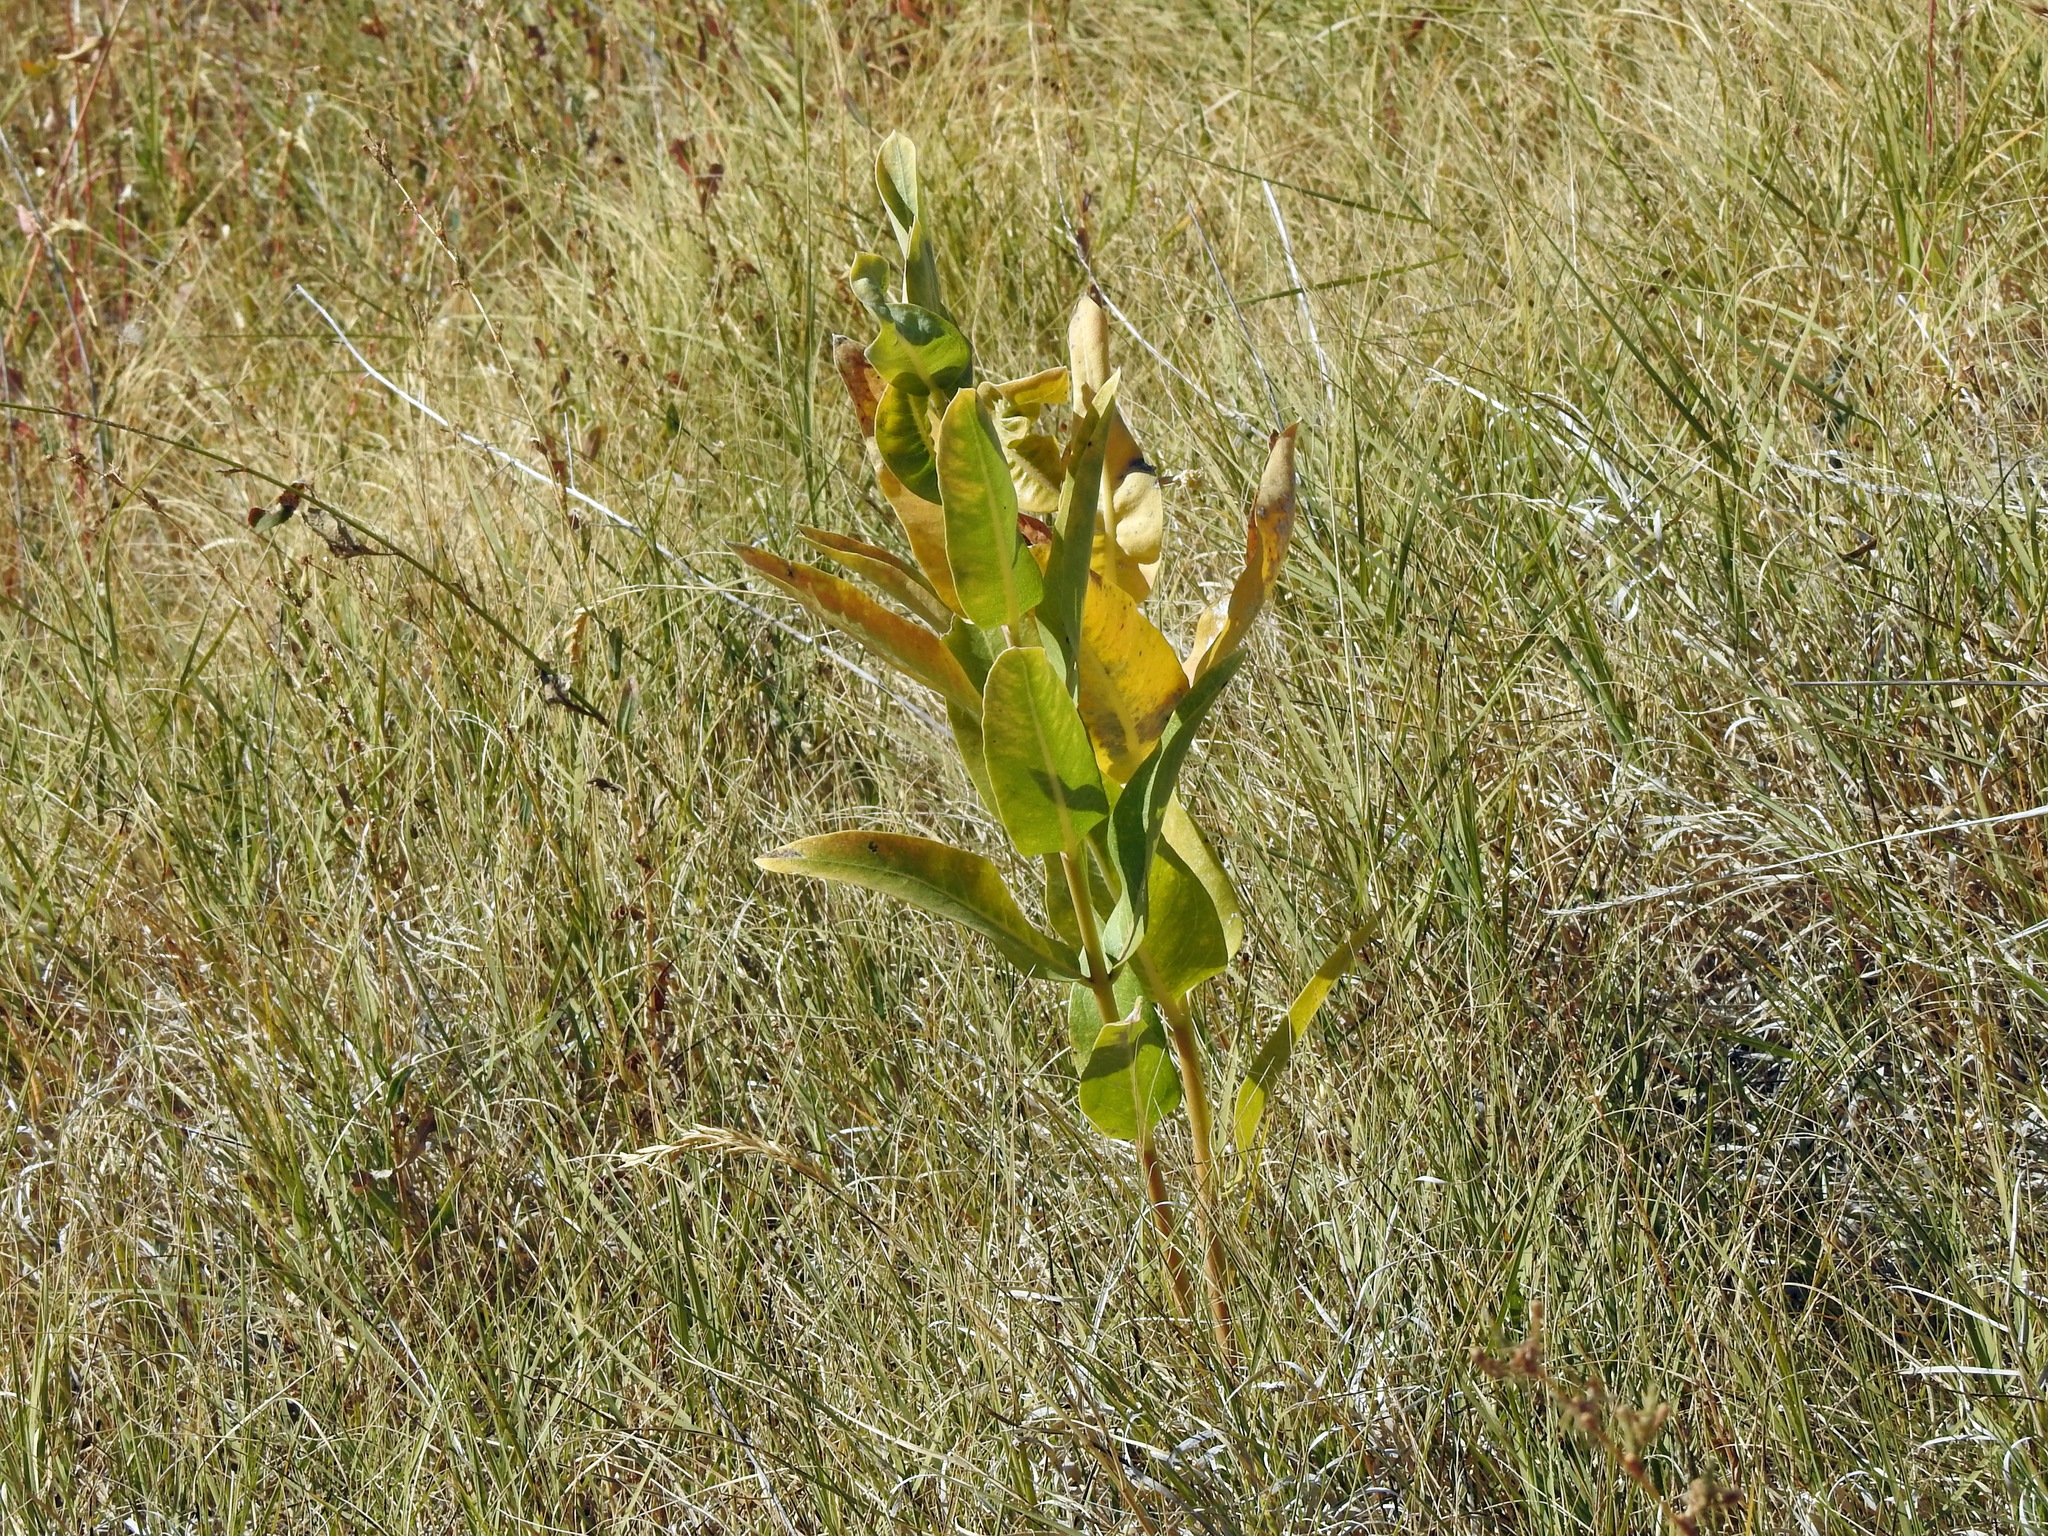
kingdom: Plantae
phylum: Tracheophyta
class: Magnoliopsida
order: Gentianales
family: Apocynaceae
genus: Asclepias
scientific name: Asclepias speciosa
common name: Showy milkweed
